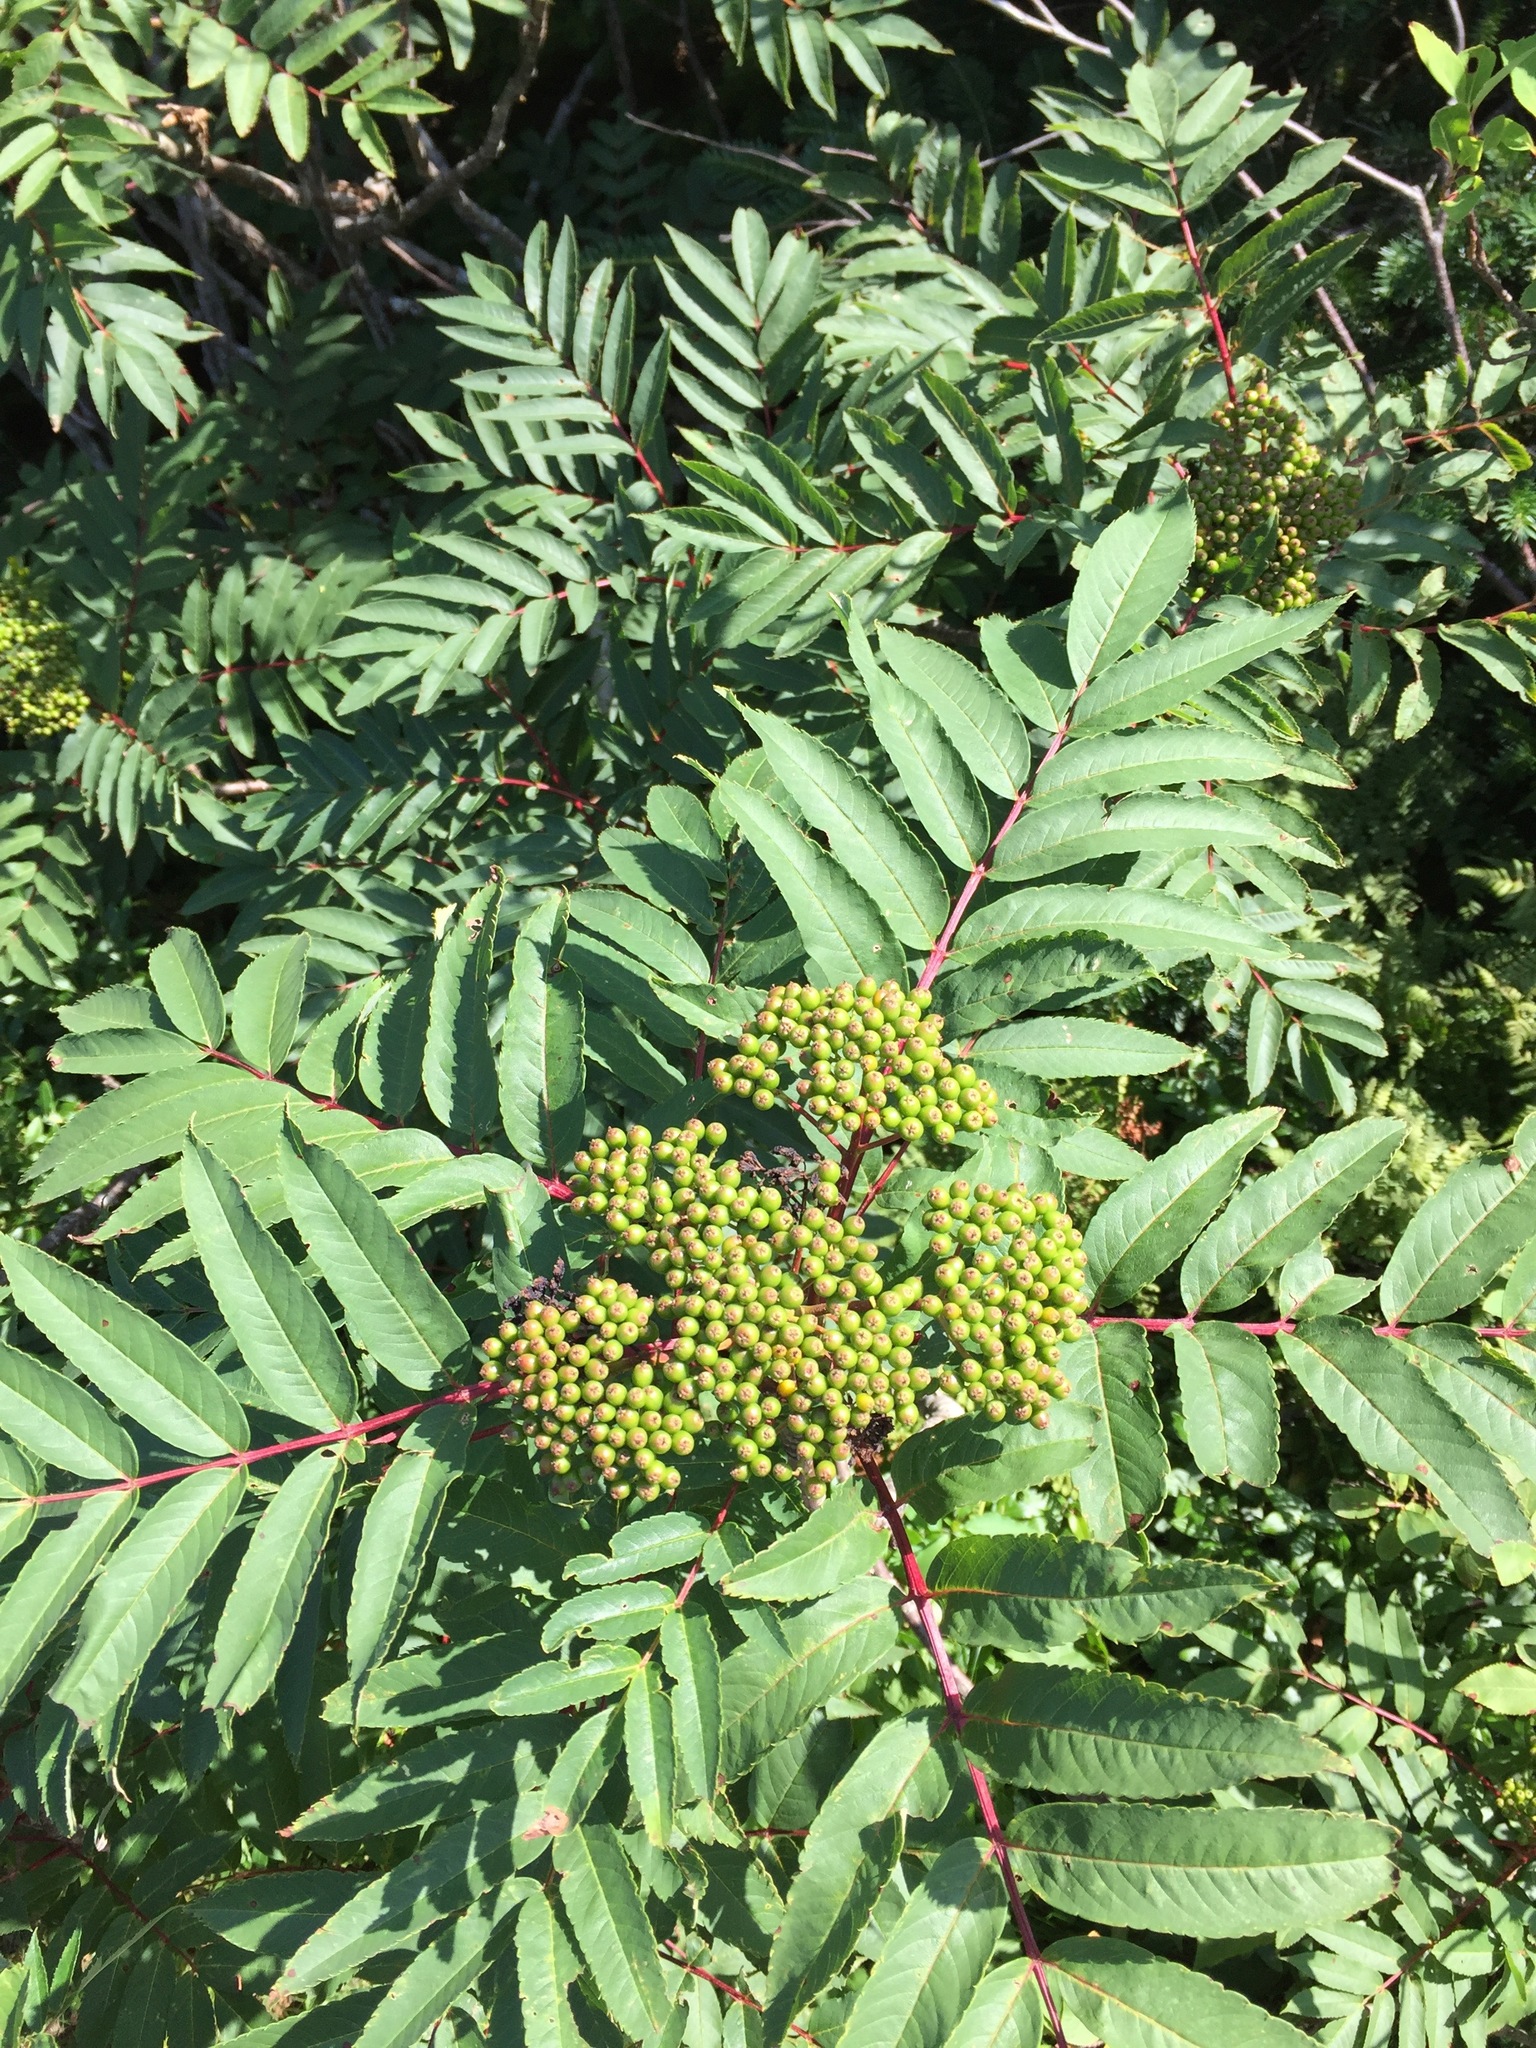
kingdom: Plantae
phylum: Tracheophyta
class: Magnoliopsida
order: Rosales
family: Rosaceae
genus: Sorbus
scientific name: Sorbus americana
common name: American mountain-ash
